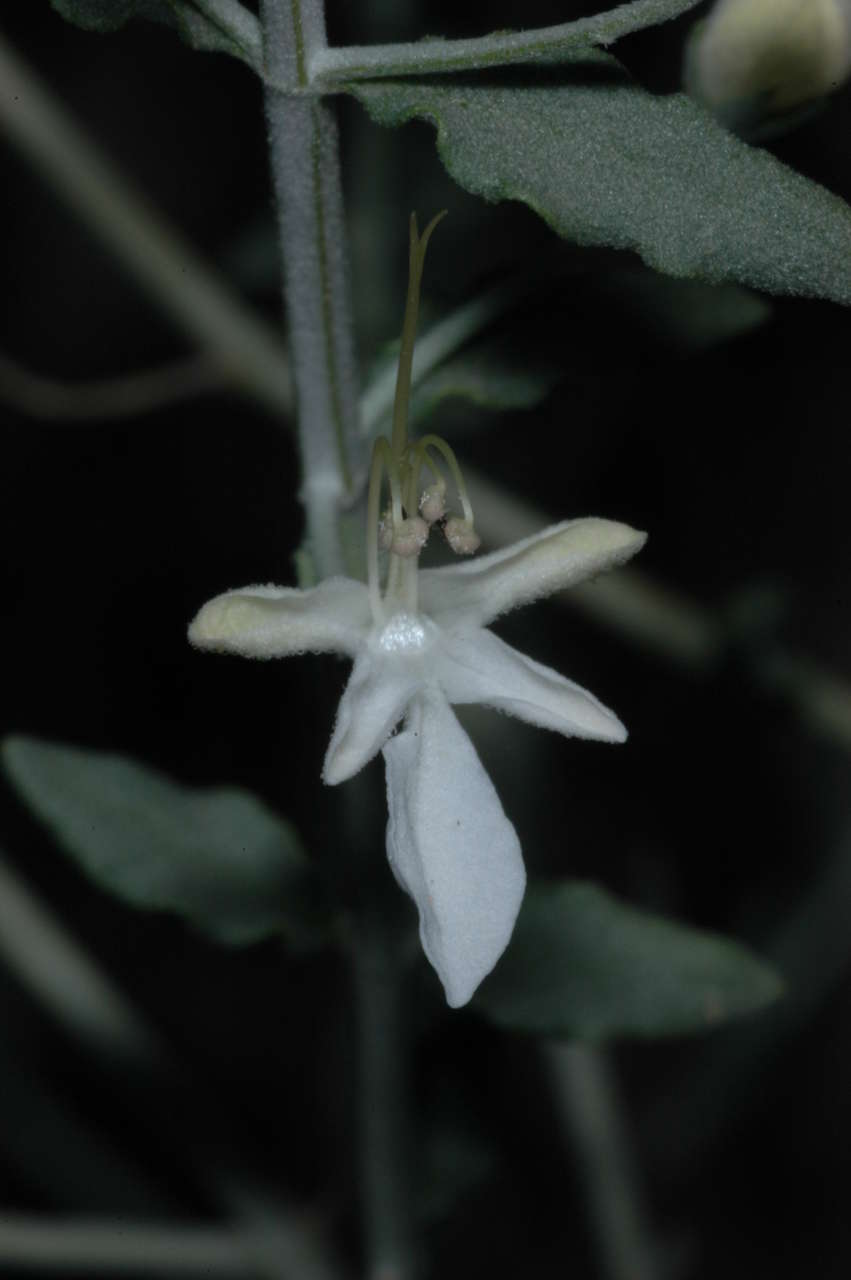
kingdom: Plantae
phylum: Tracheophyta
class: Magnoliopsida
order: Lamiales
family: Lamiaceae
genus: Teucrium
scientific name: Teucrium racemosum
